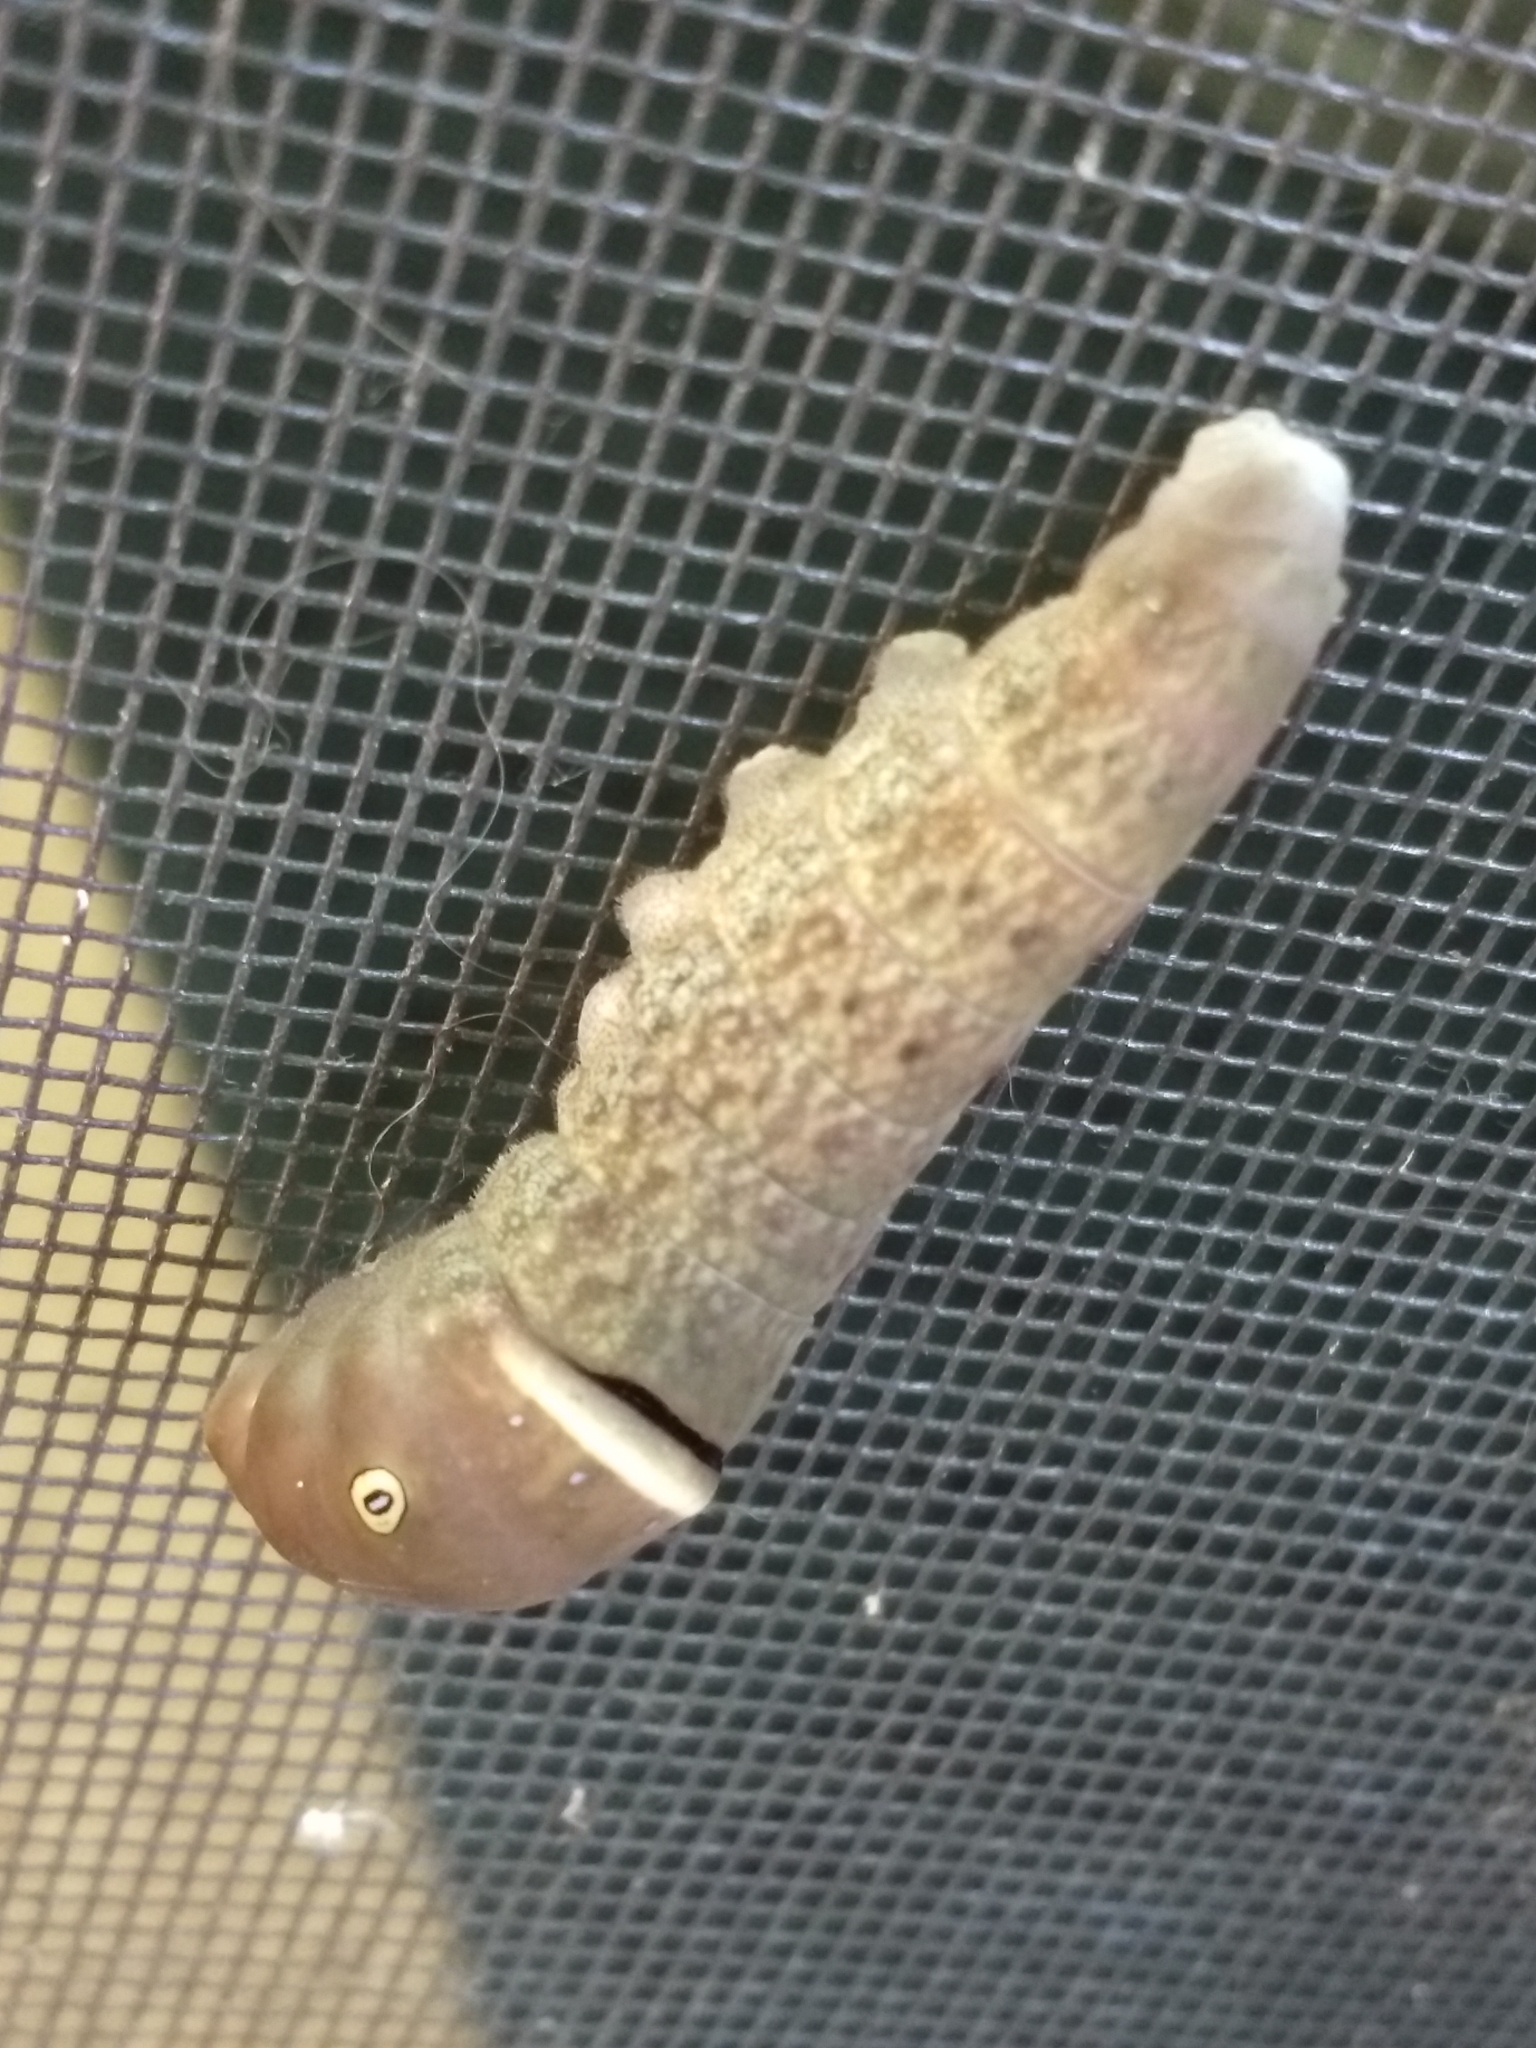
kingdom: Animalia
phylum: Arthropoda
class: Insecta
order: Lepidoptera
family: Papilionidae
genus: Papilio
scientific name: Papilio glaucus
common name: Tiger swallowtail
